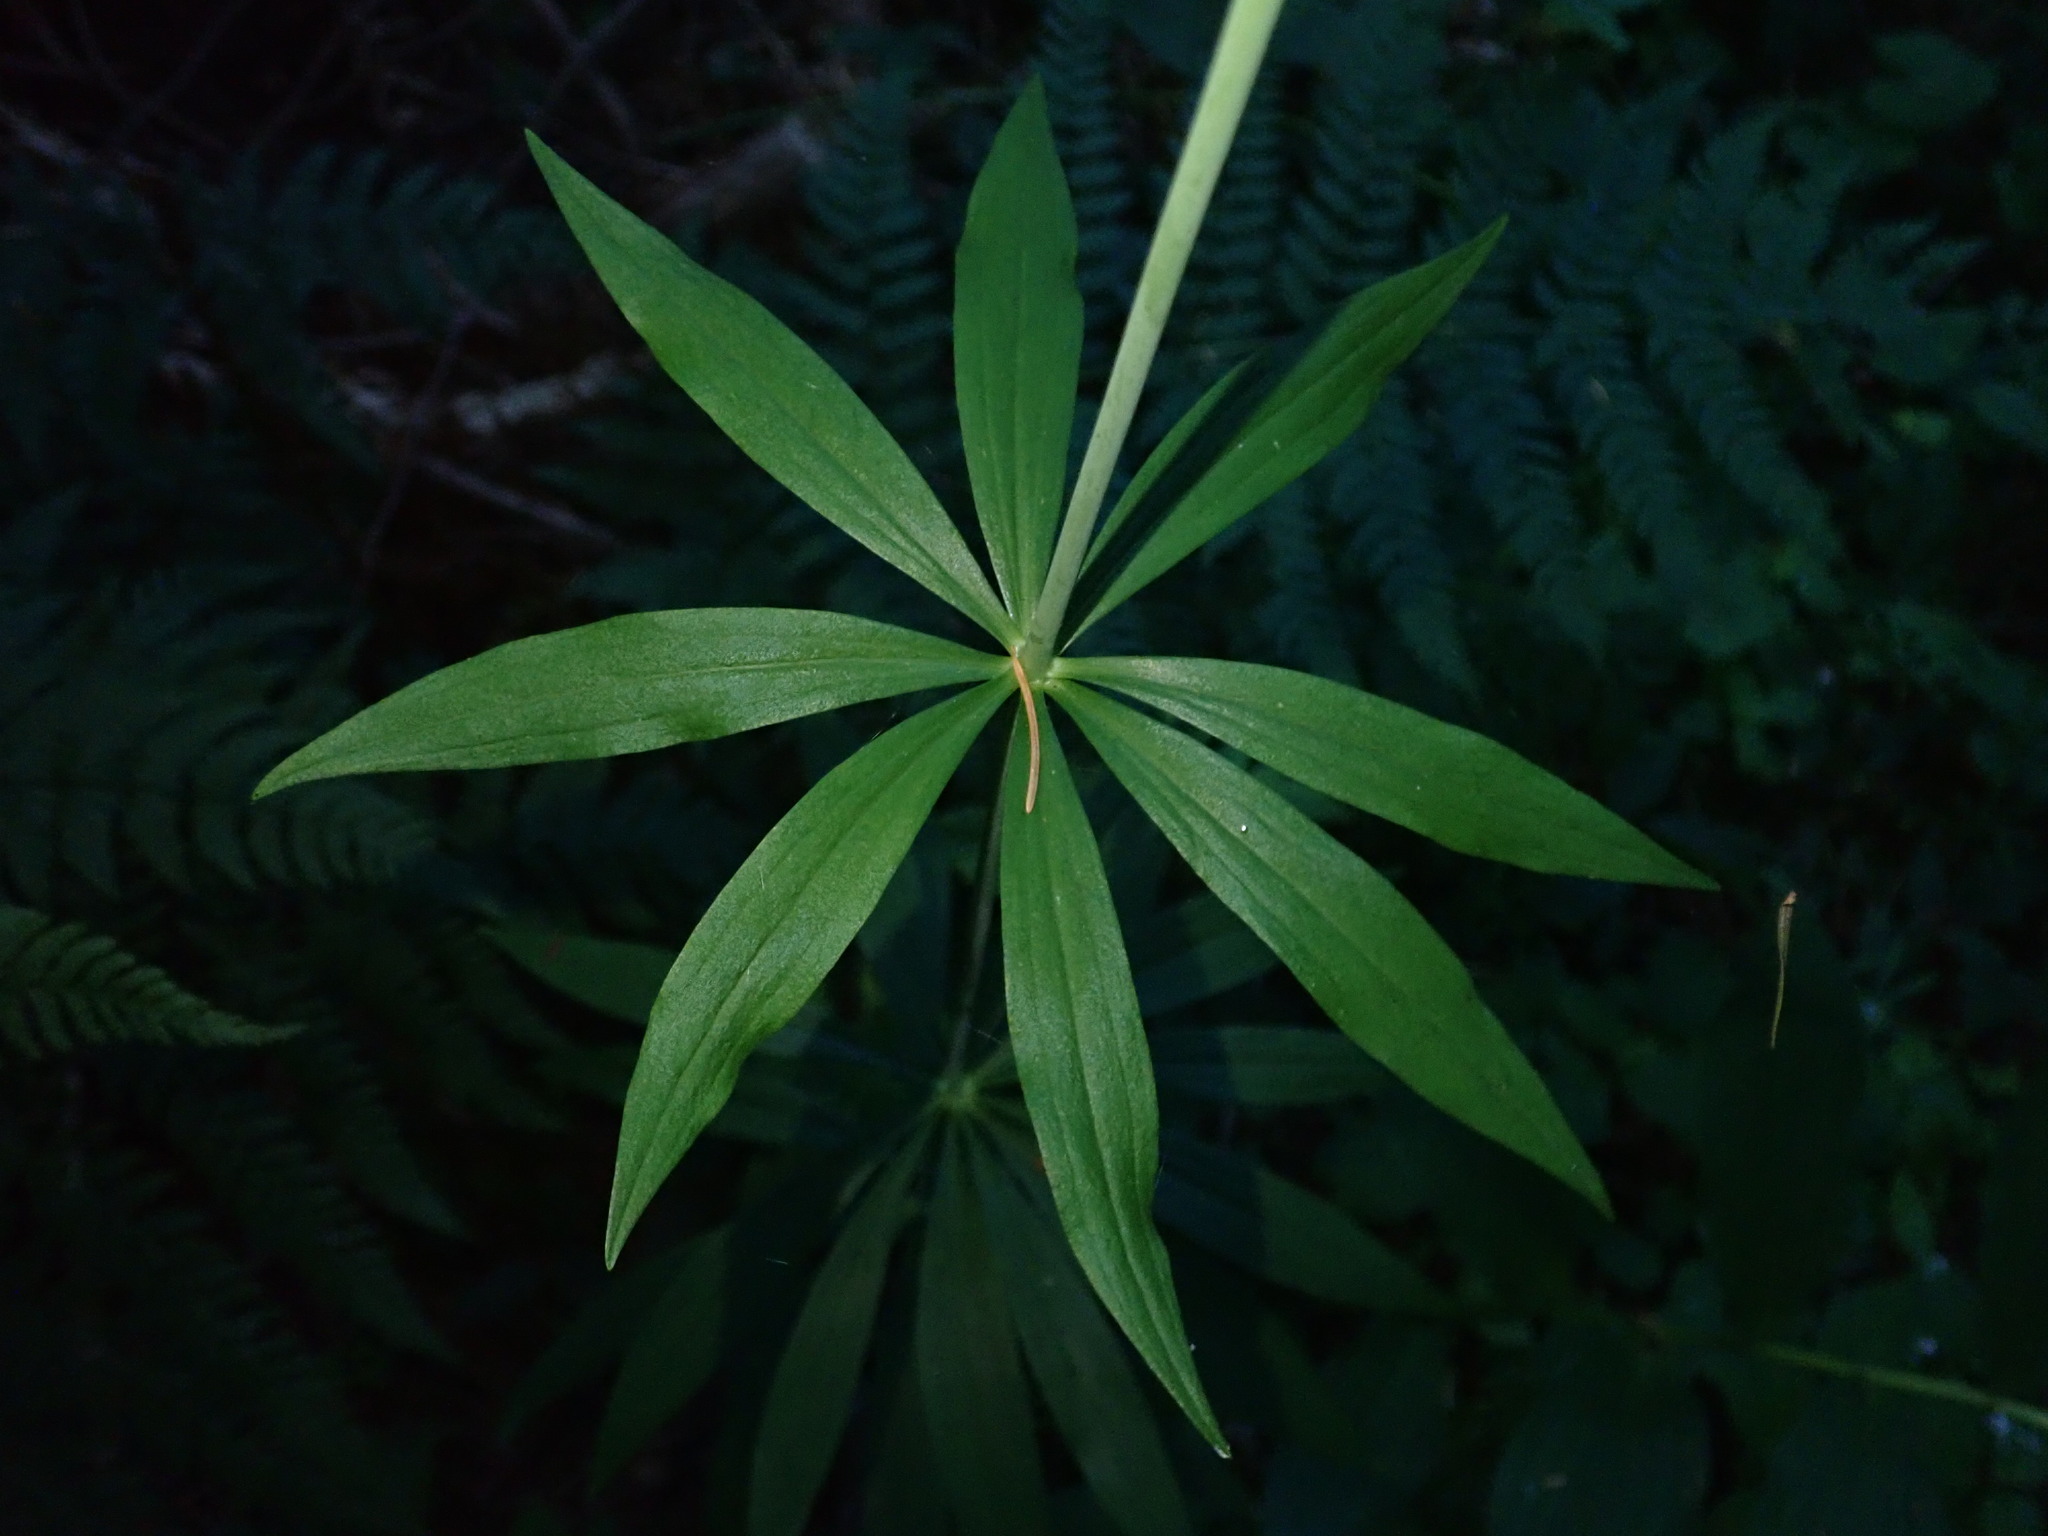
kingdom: Plantae
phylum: Tracheophyta
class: Liliopsida
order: Liliales
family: Liliaceae
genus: Lilium
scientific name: Lilium columbianum
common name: Columbia lily
